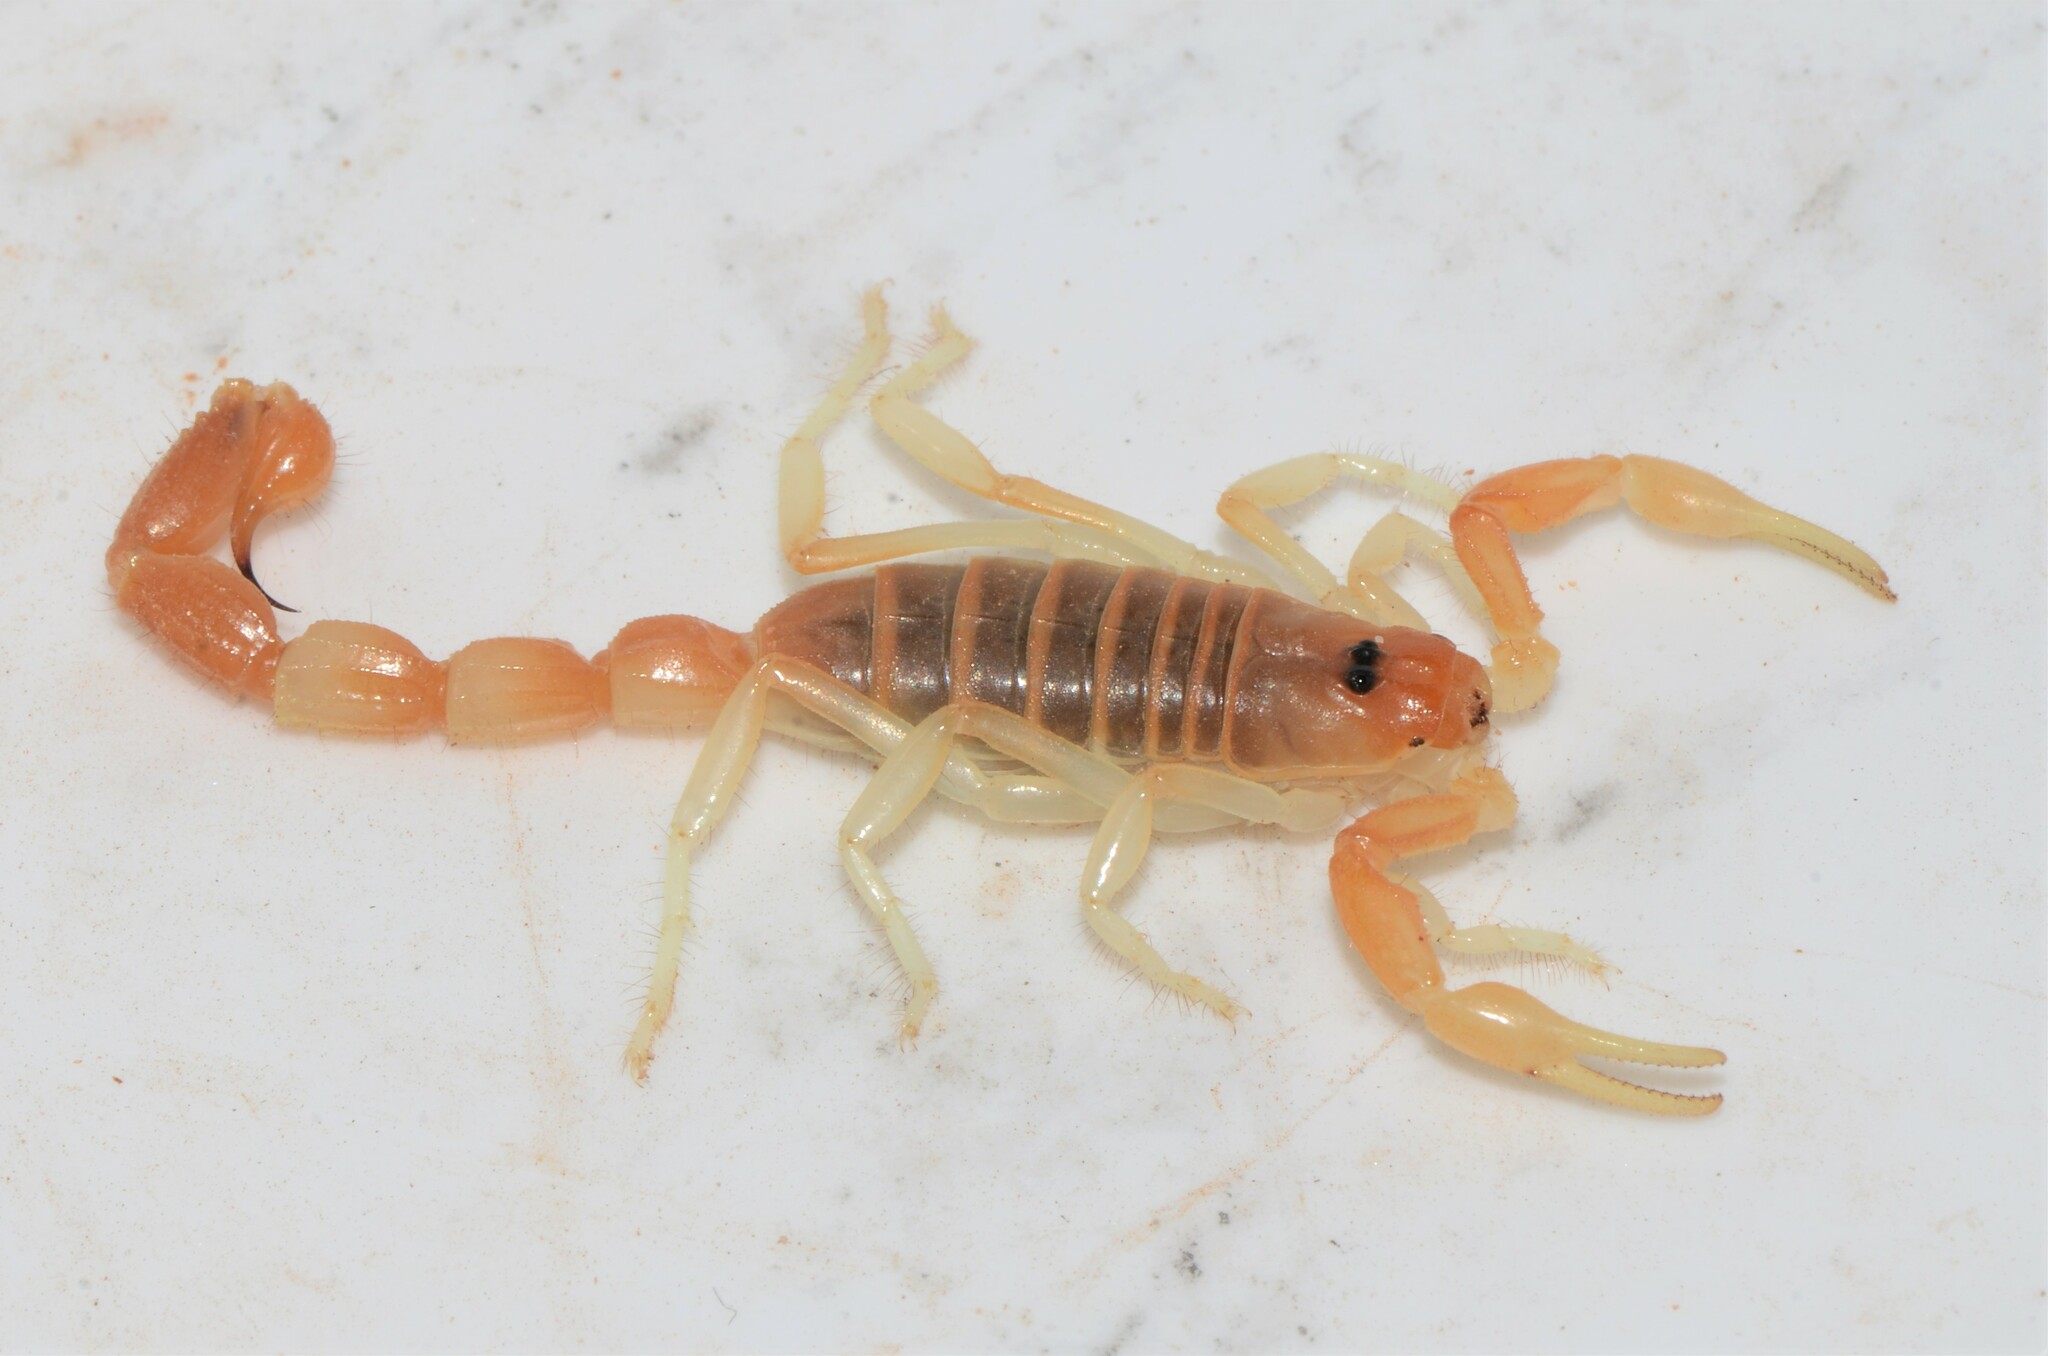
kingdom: Animalia
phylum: Arthropoda
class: Arachnida
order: Scorpiones
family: Buthidae
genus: Parabuthus
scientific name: Parabuthus laevifrons
